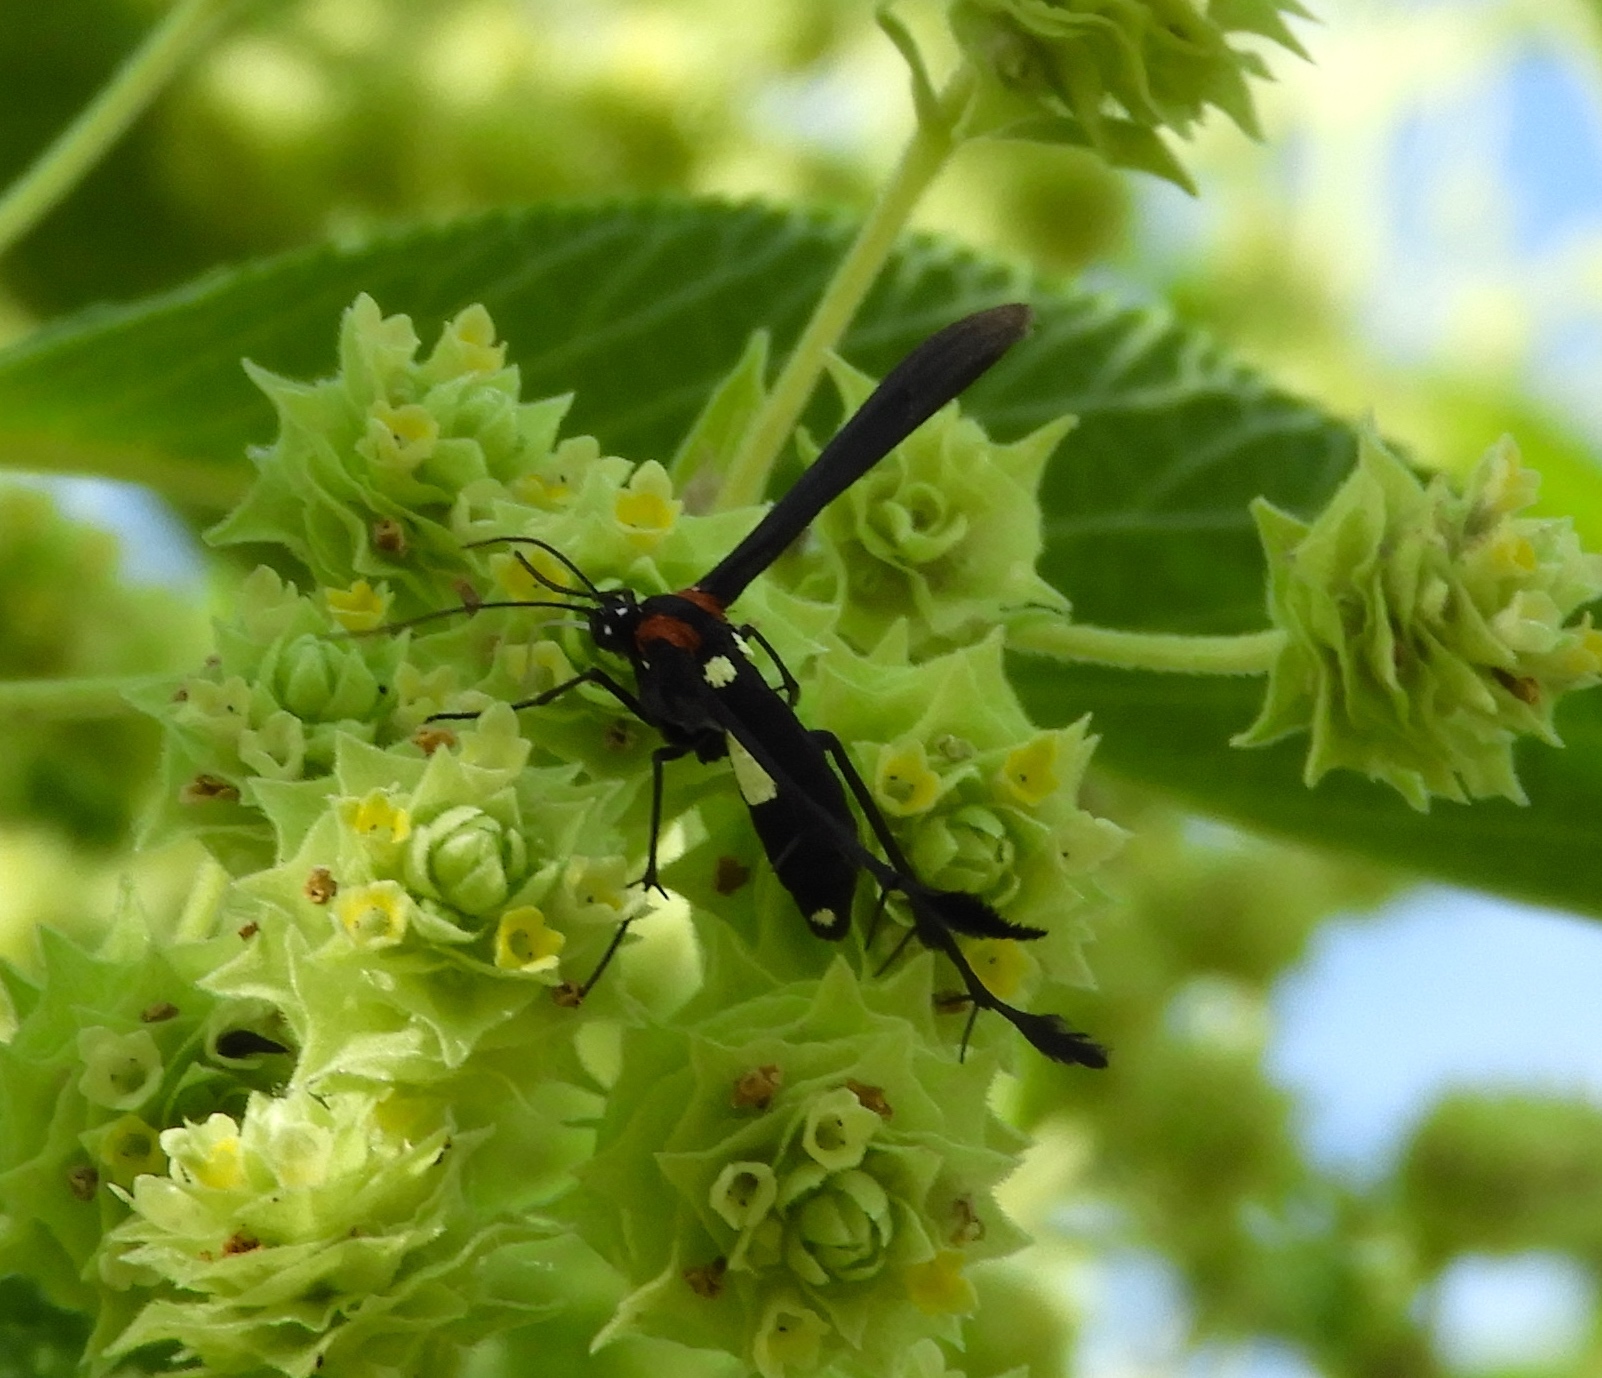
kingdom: Animalia
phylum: Arthropoda
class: Insecta
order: Lepidoptera
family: Pterophoridae
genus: Hellinsia
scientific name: Hellinsia chamelai
